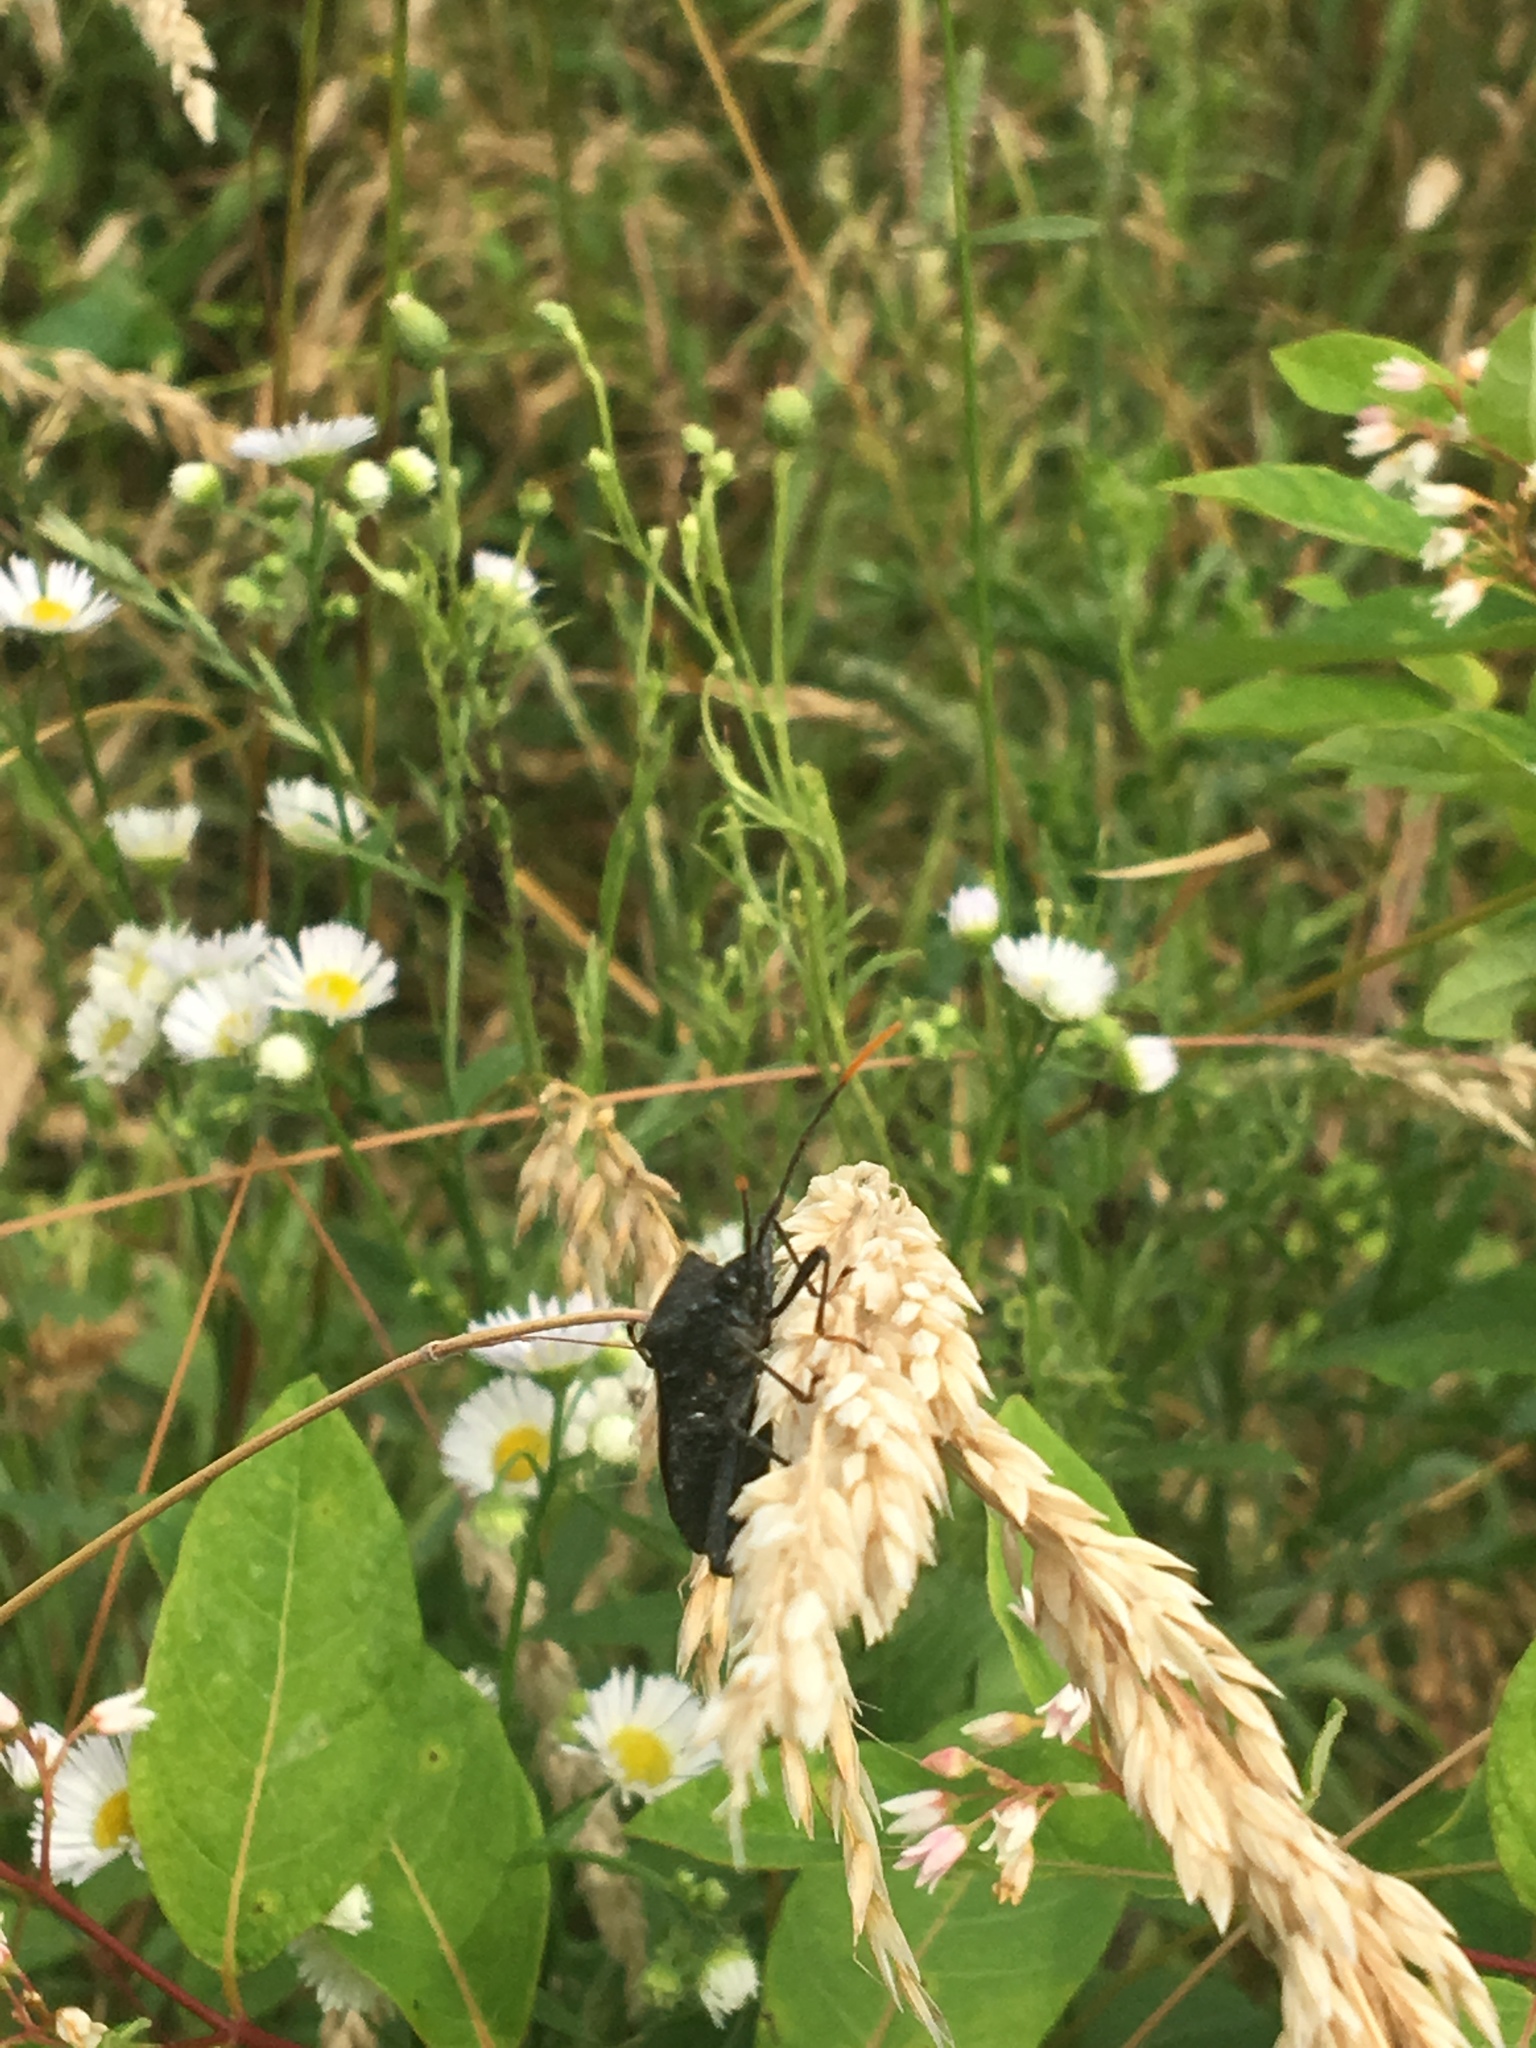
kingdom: Animalia
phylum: Arthropoda
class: Insecta
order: Hemiptera
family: Coreidae
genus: Acanthocephala
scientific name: Acanthocephala terminalis
